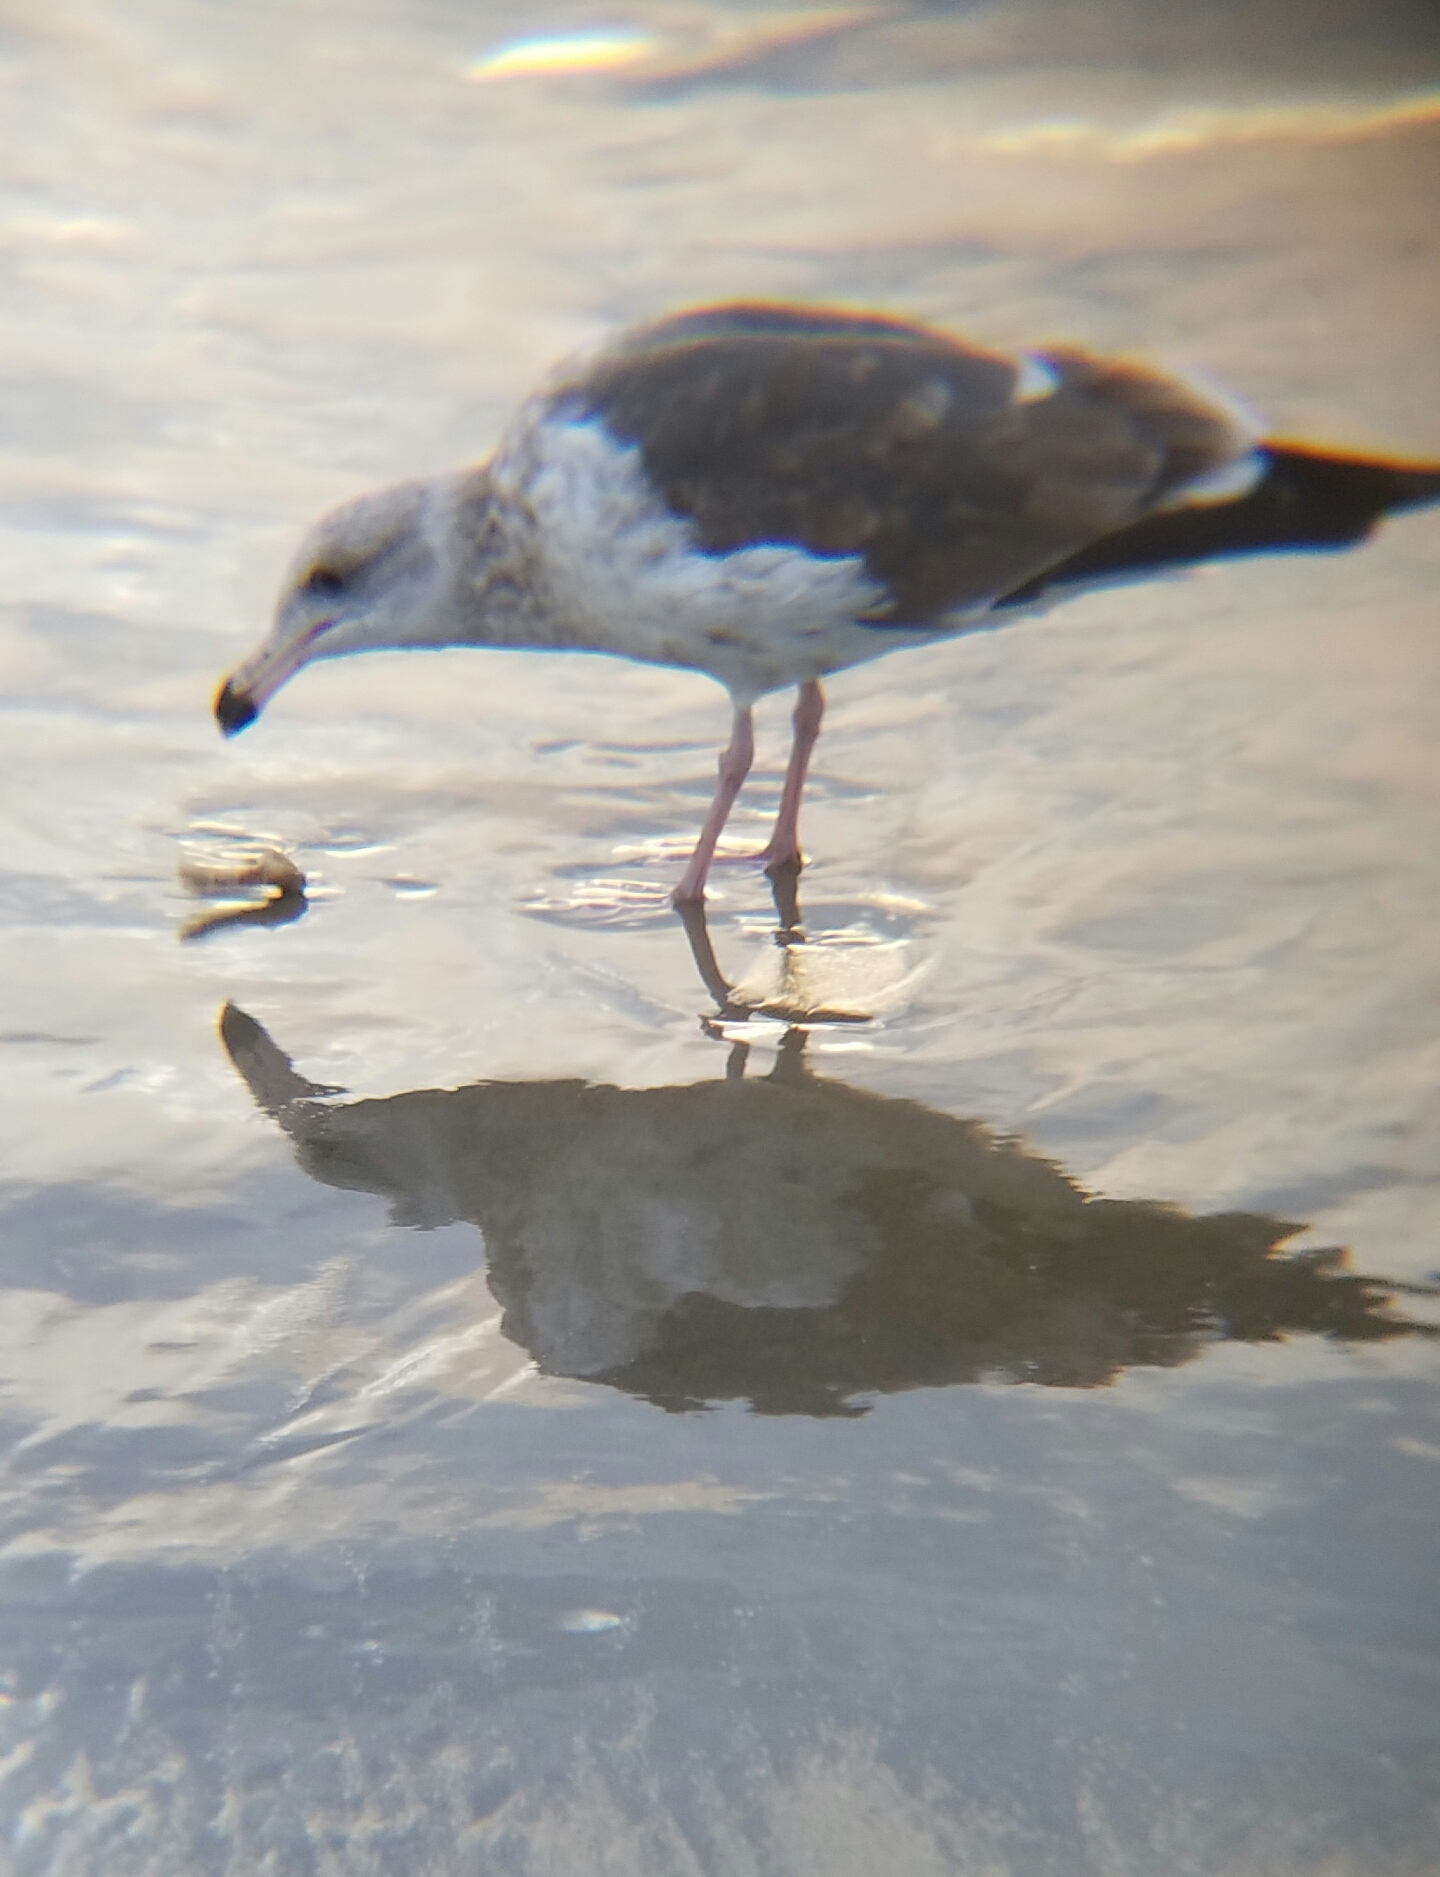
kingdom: Animalia
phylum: Chordata
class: Aves
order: Charadriiformes
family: Laridae
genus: Larus
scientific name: Larus occidentalis
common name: Western gull
